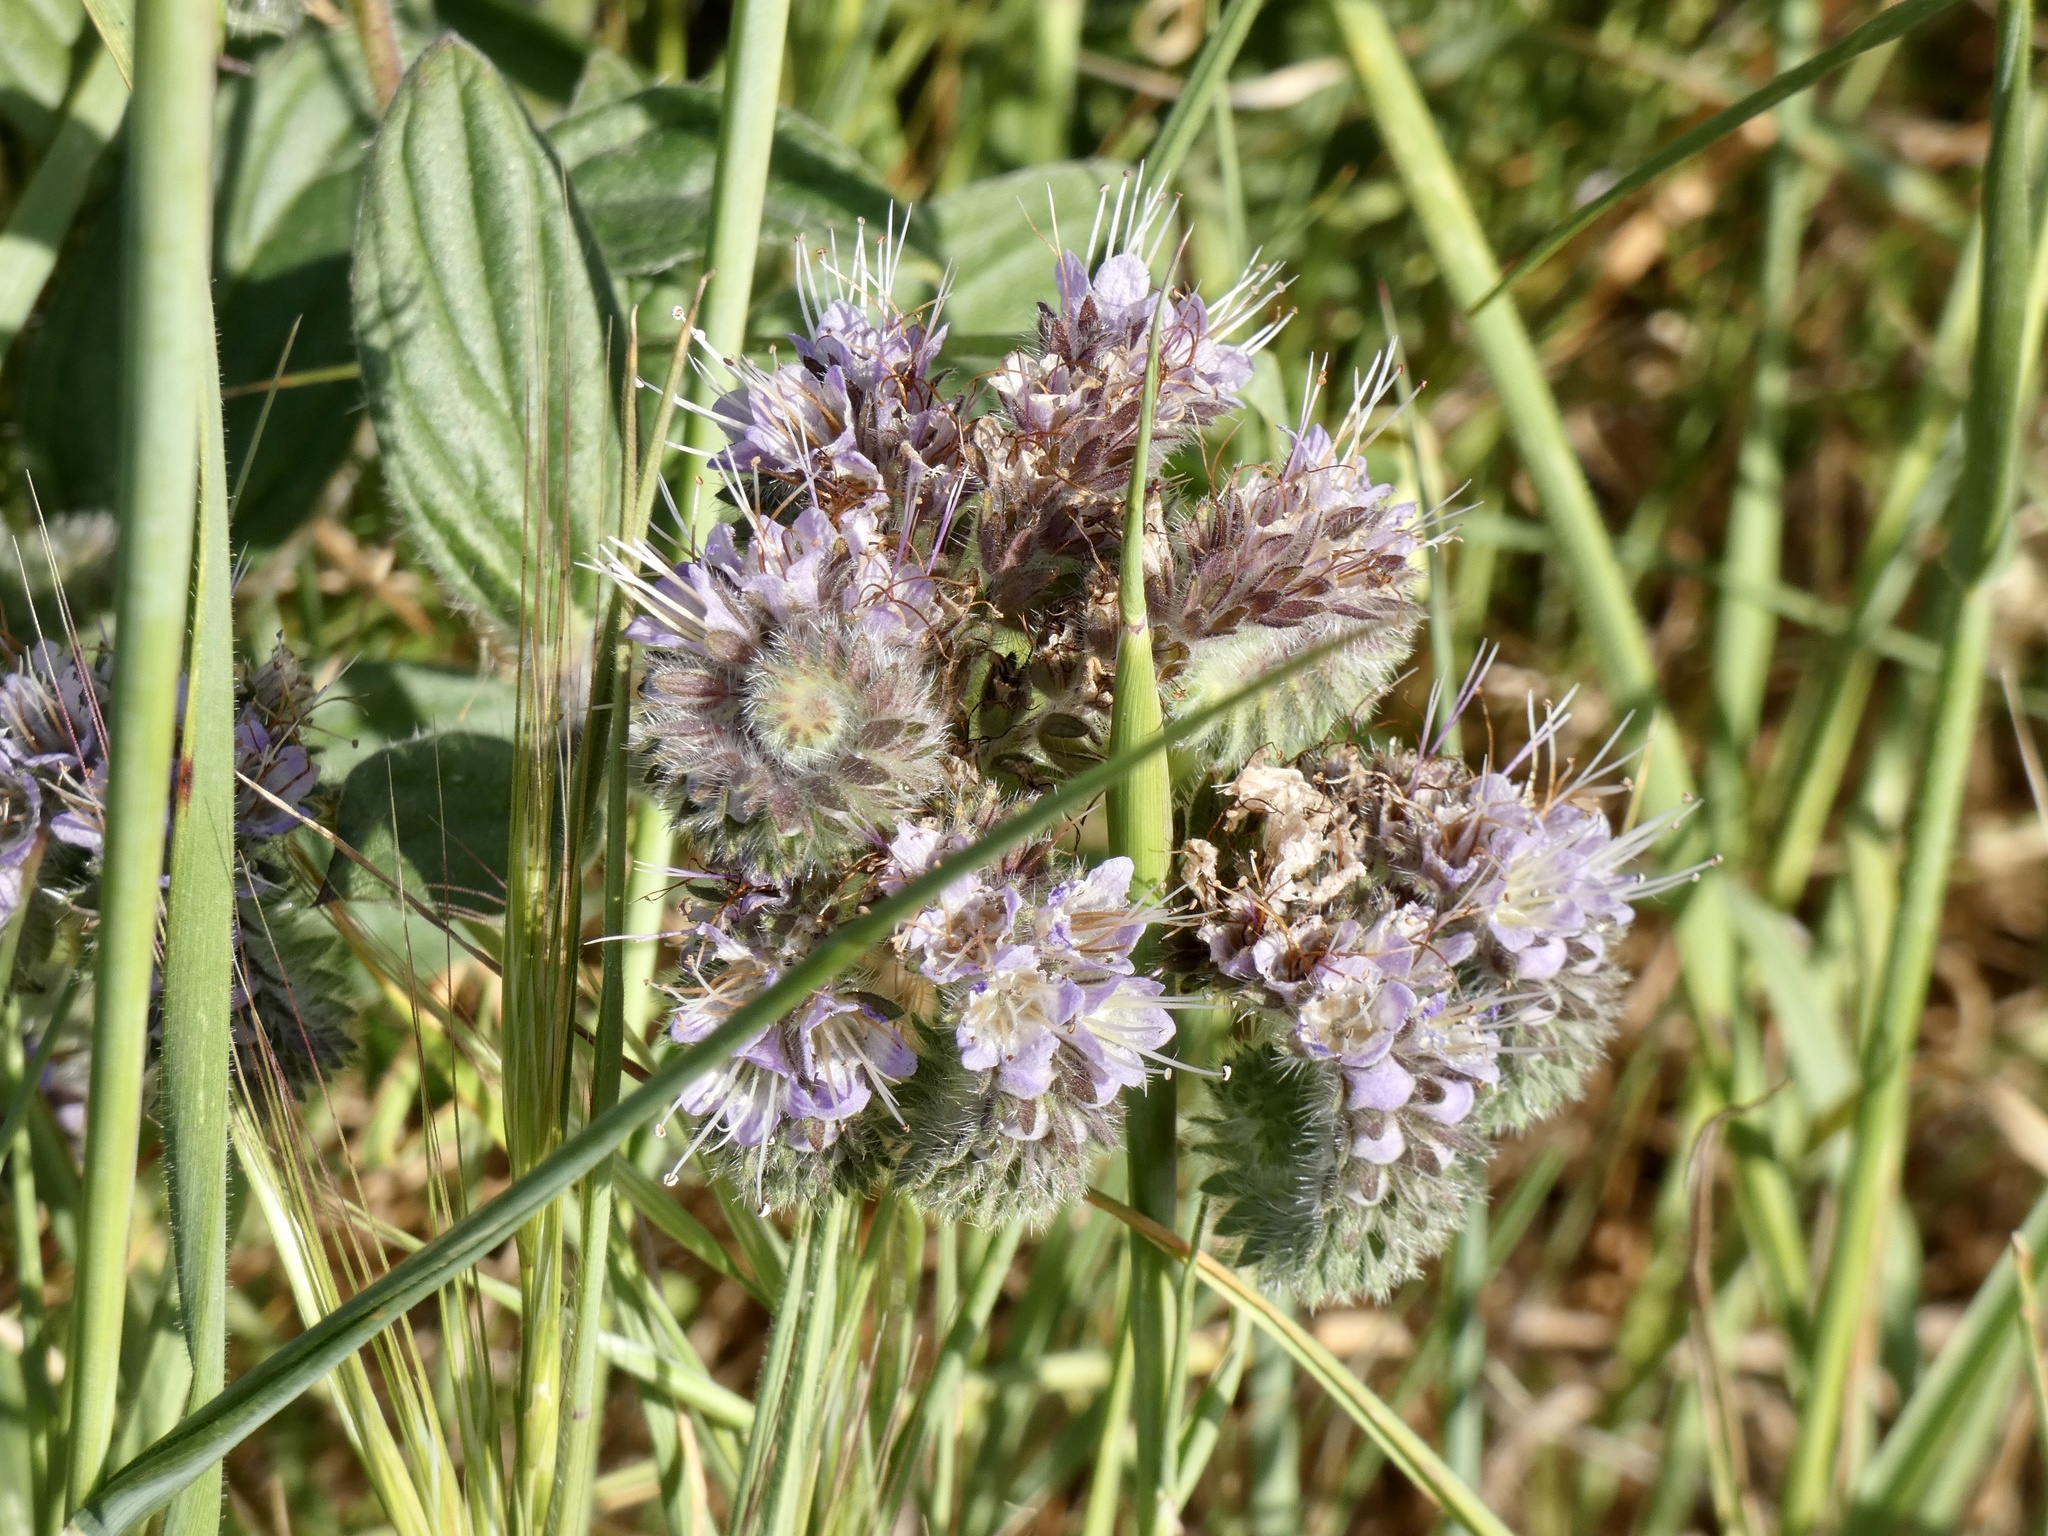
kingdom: Plantae
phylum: Tracheophyta
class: Magnoliopsida
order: Boraginales
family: Hydrophyllaceae
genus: Phacelia
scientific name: Phacelia californica
